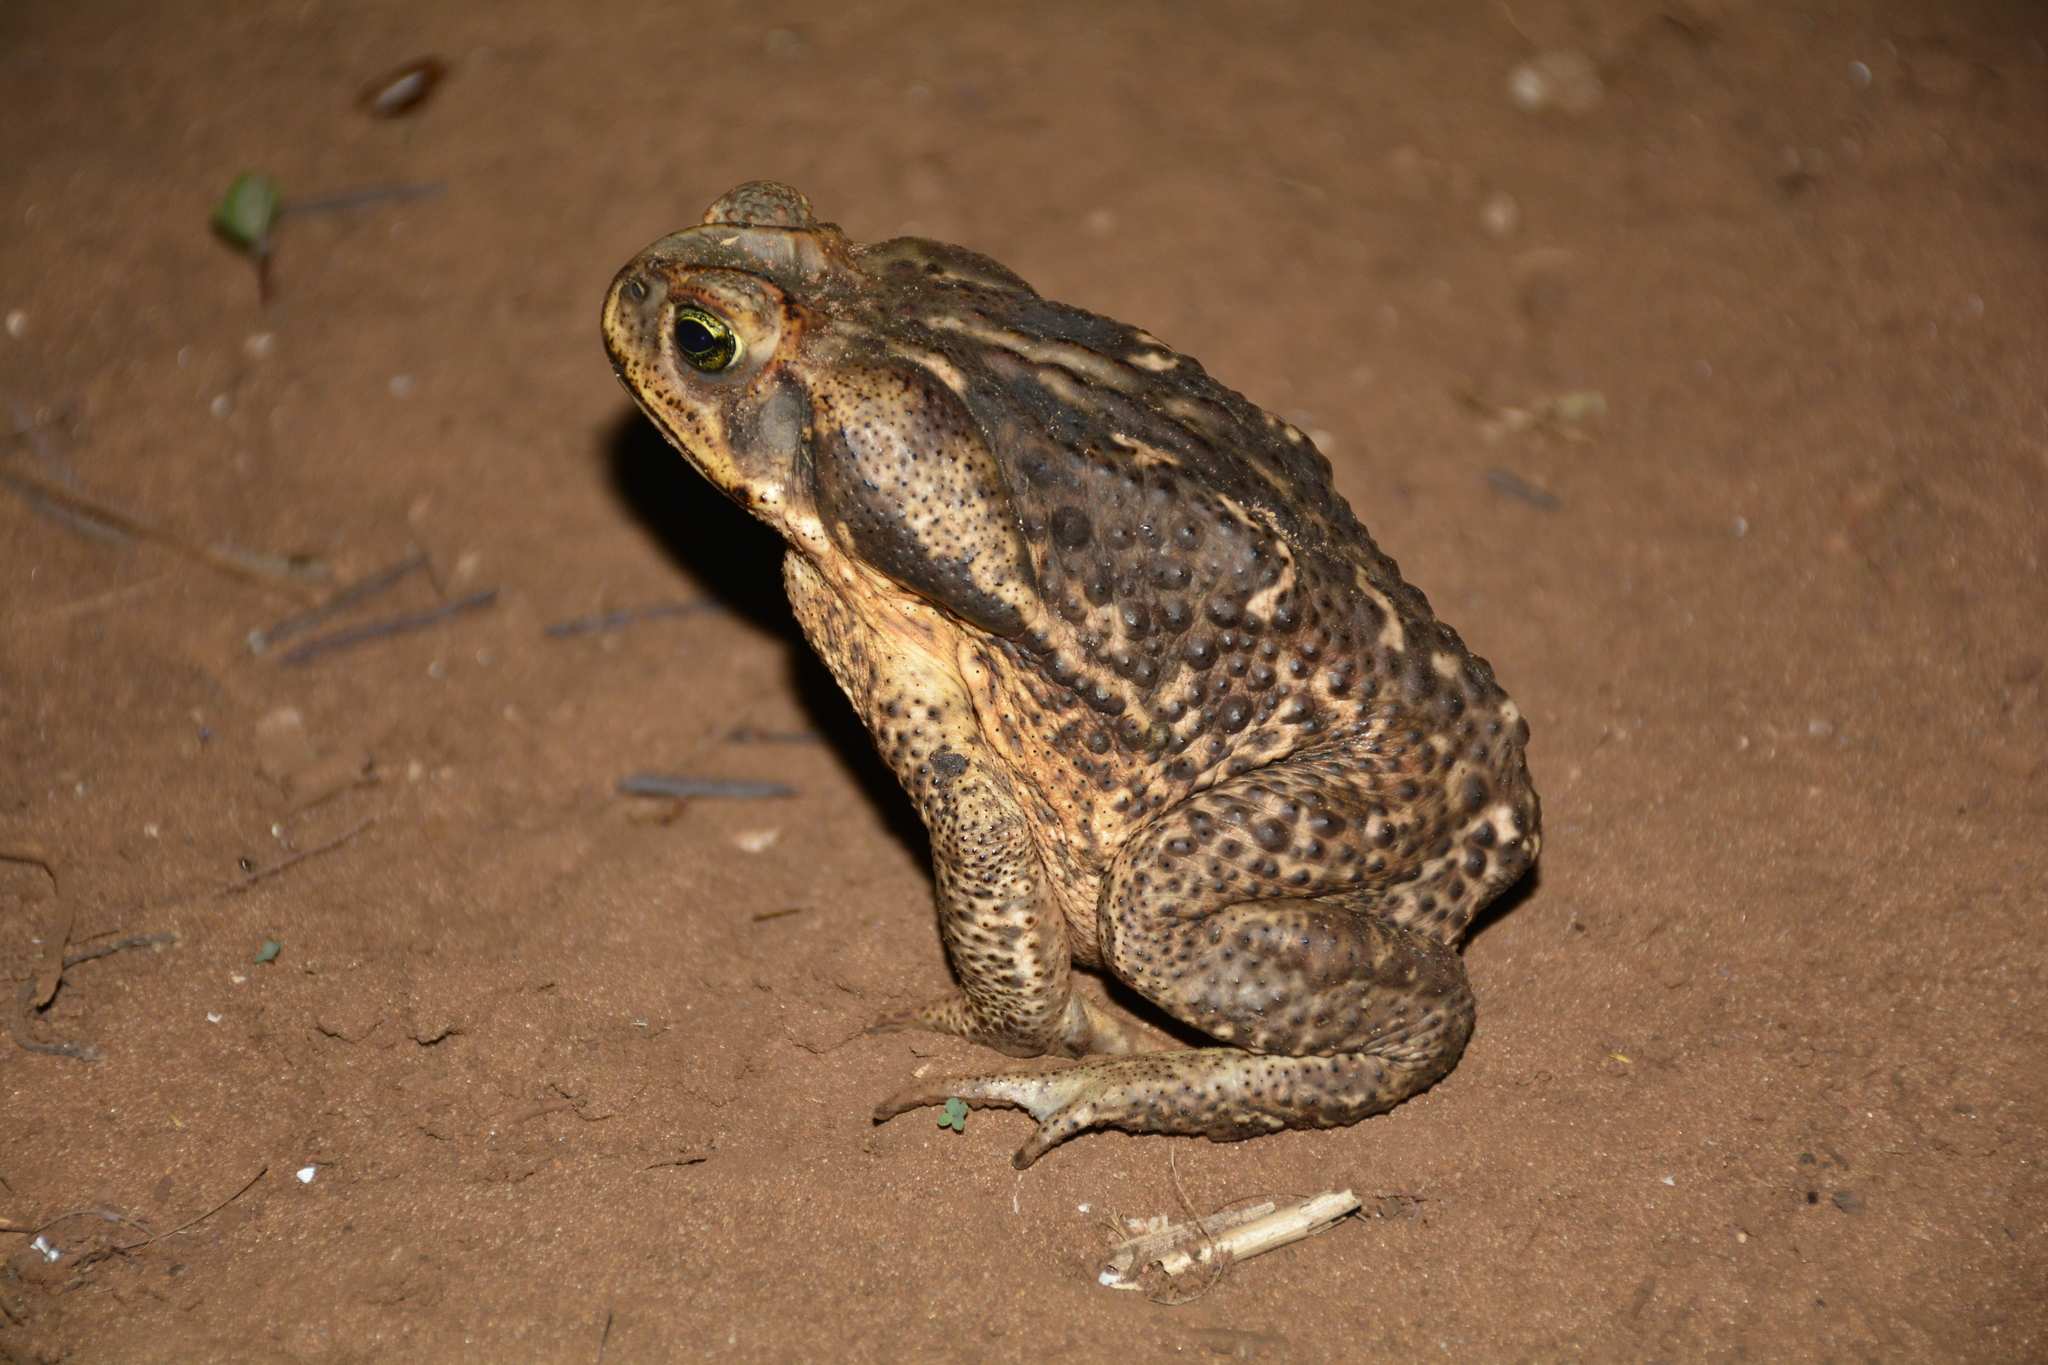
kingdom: Animalia
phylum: Chordata
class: Amphibia
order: Anura
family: Bufonidae
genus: Rhinella
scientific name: Rhinella diptycha
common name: Cope's toad
